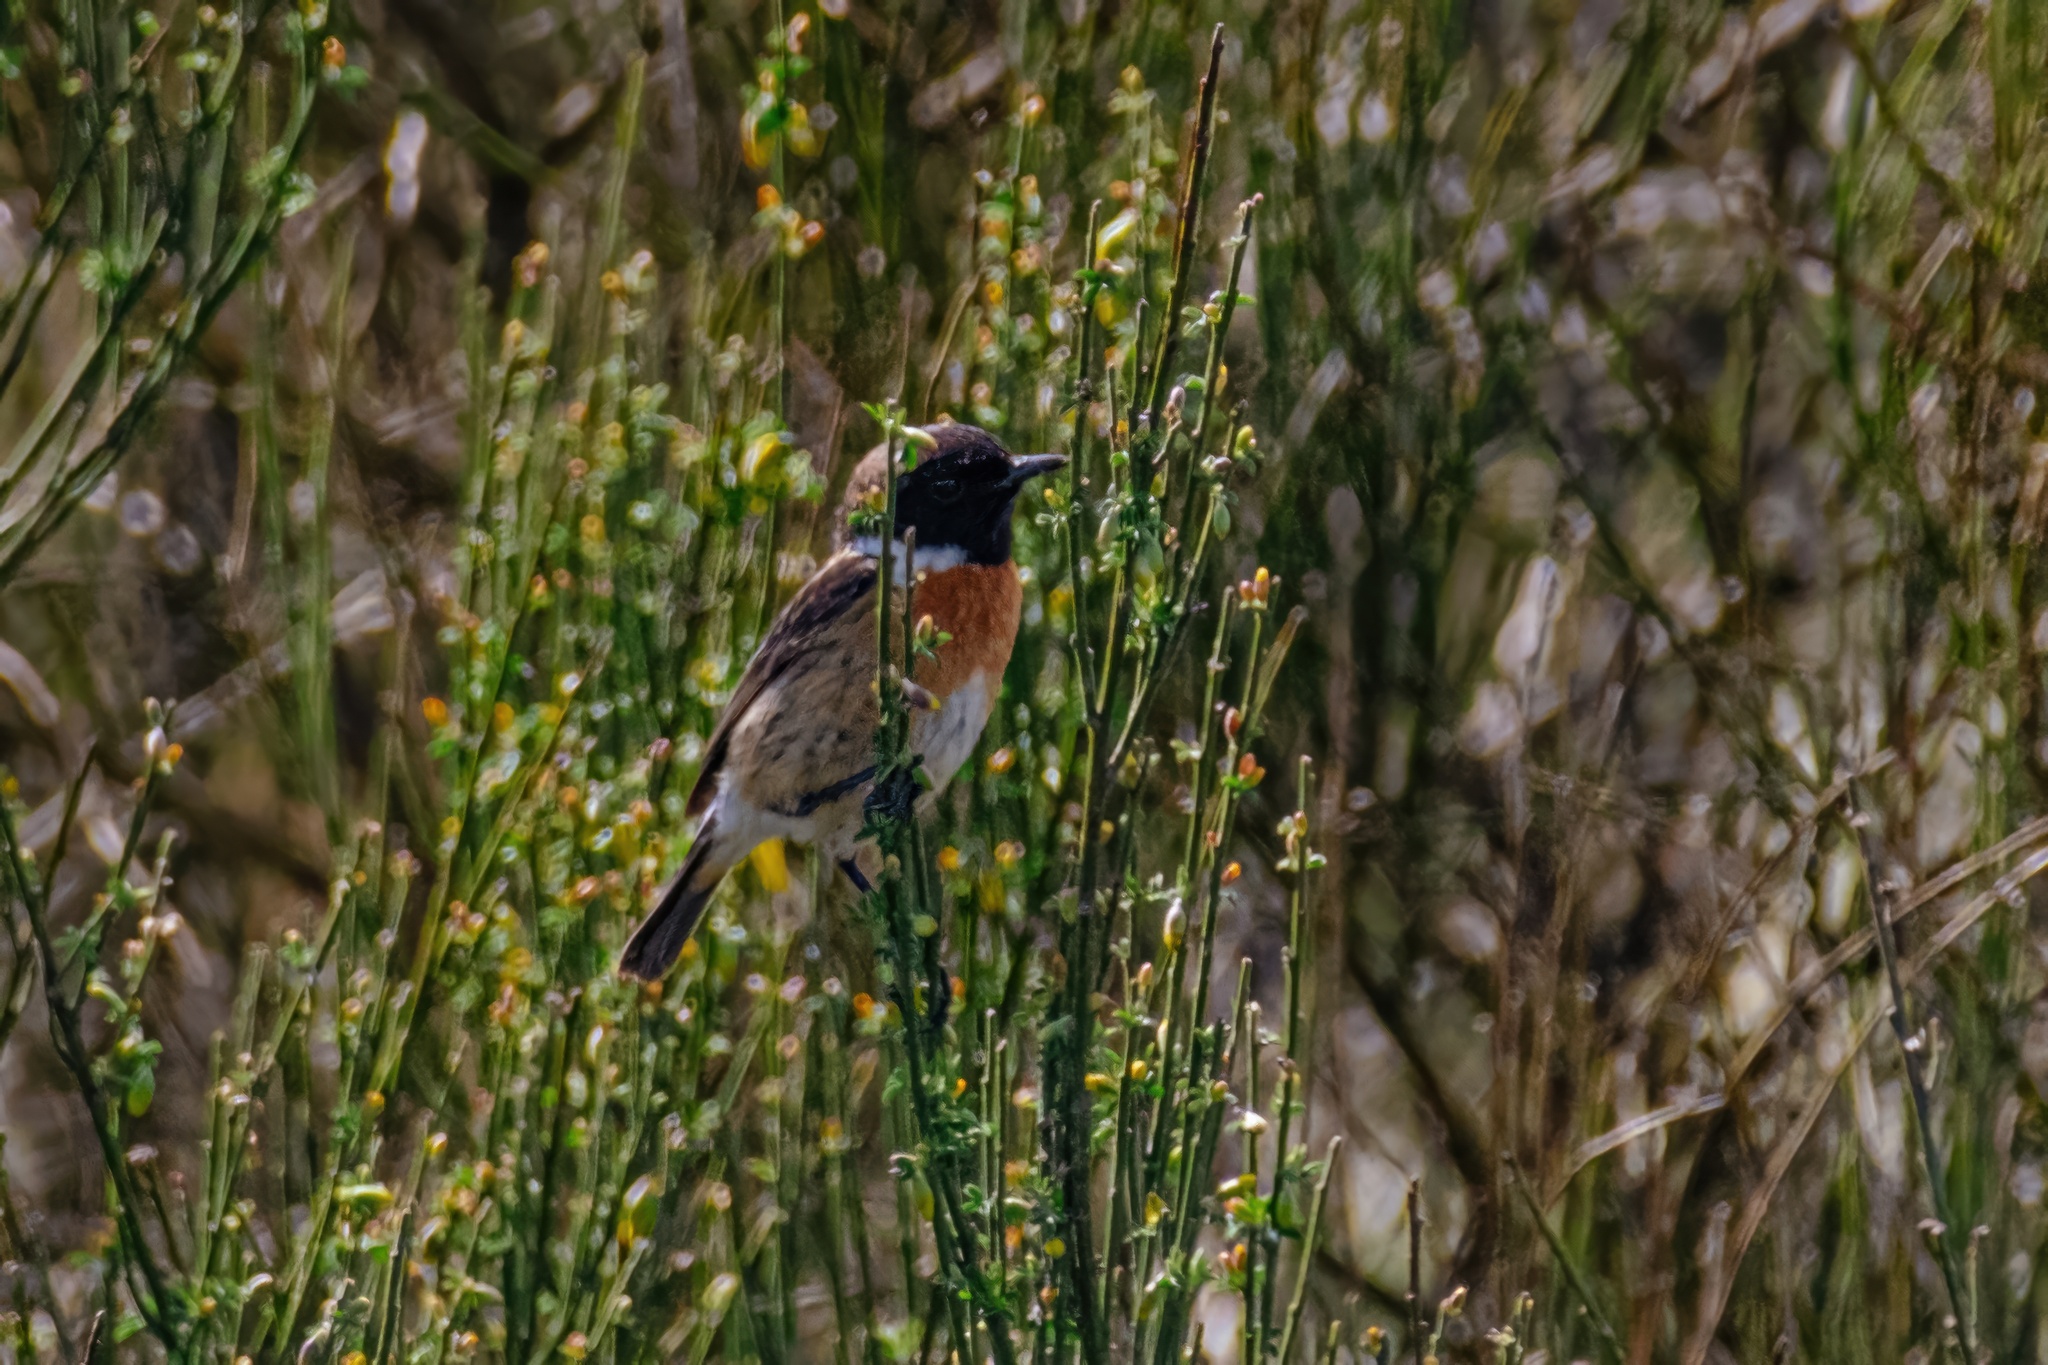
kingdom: Animalia
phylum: Chordata
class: Aves
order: Passeriformes
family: Muscicapidae
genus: Saxicola
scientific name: Saxicola rubicola
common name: European stonechat
